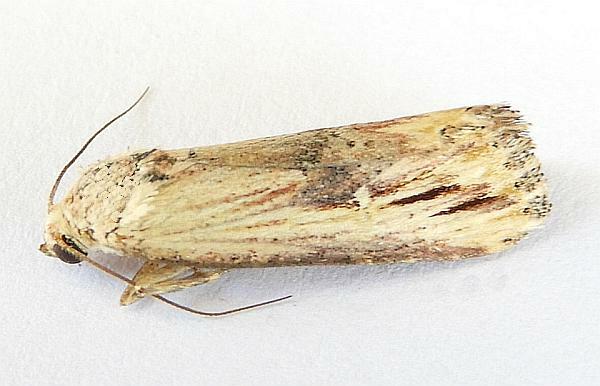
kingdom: Animalia
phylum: Arthropoda
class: Insecta
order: Lepidoptera
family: Noctuidae
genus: Crambodes
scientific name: Crambodes talidiformis
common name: Verbena moth
